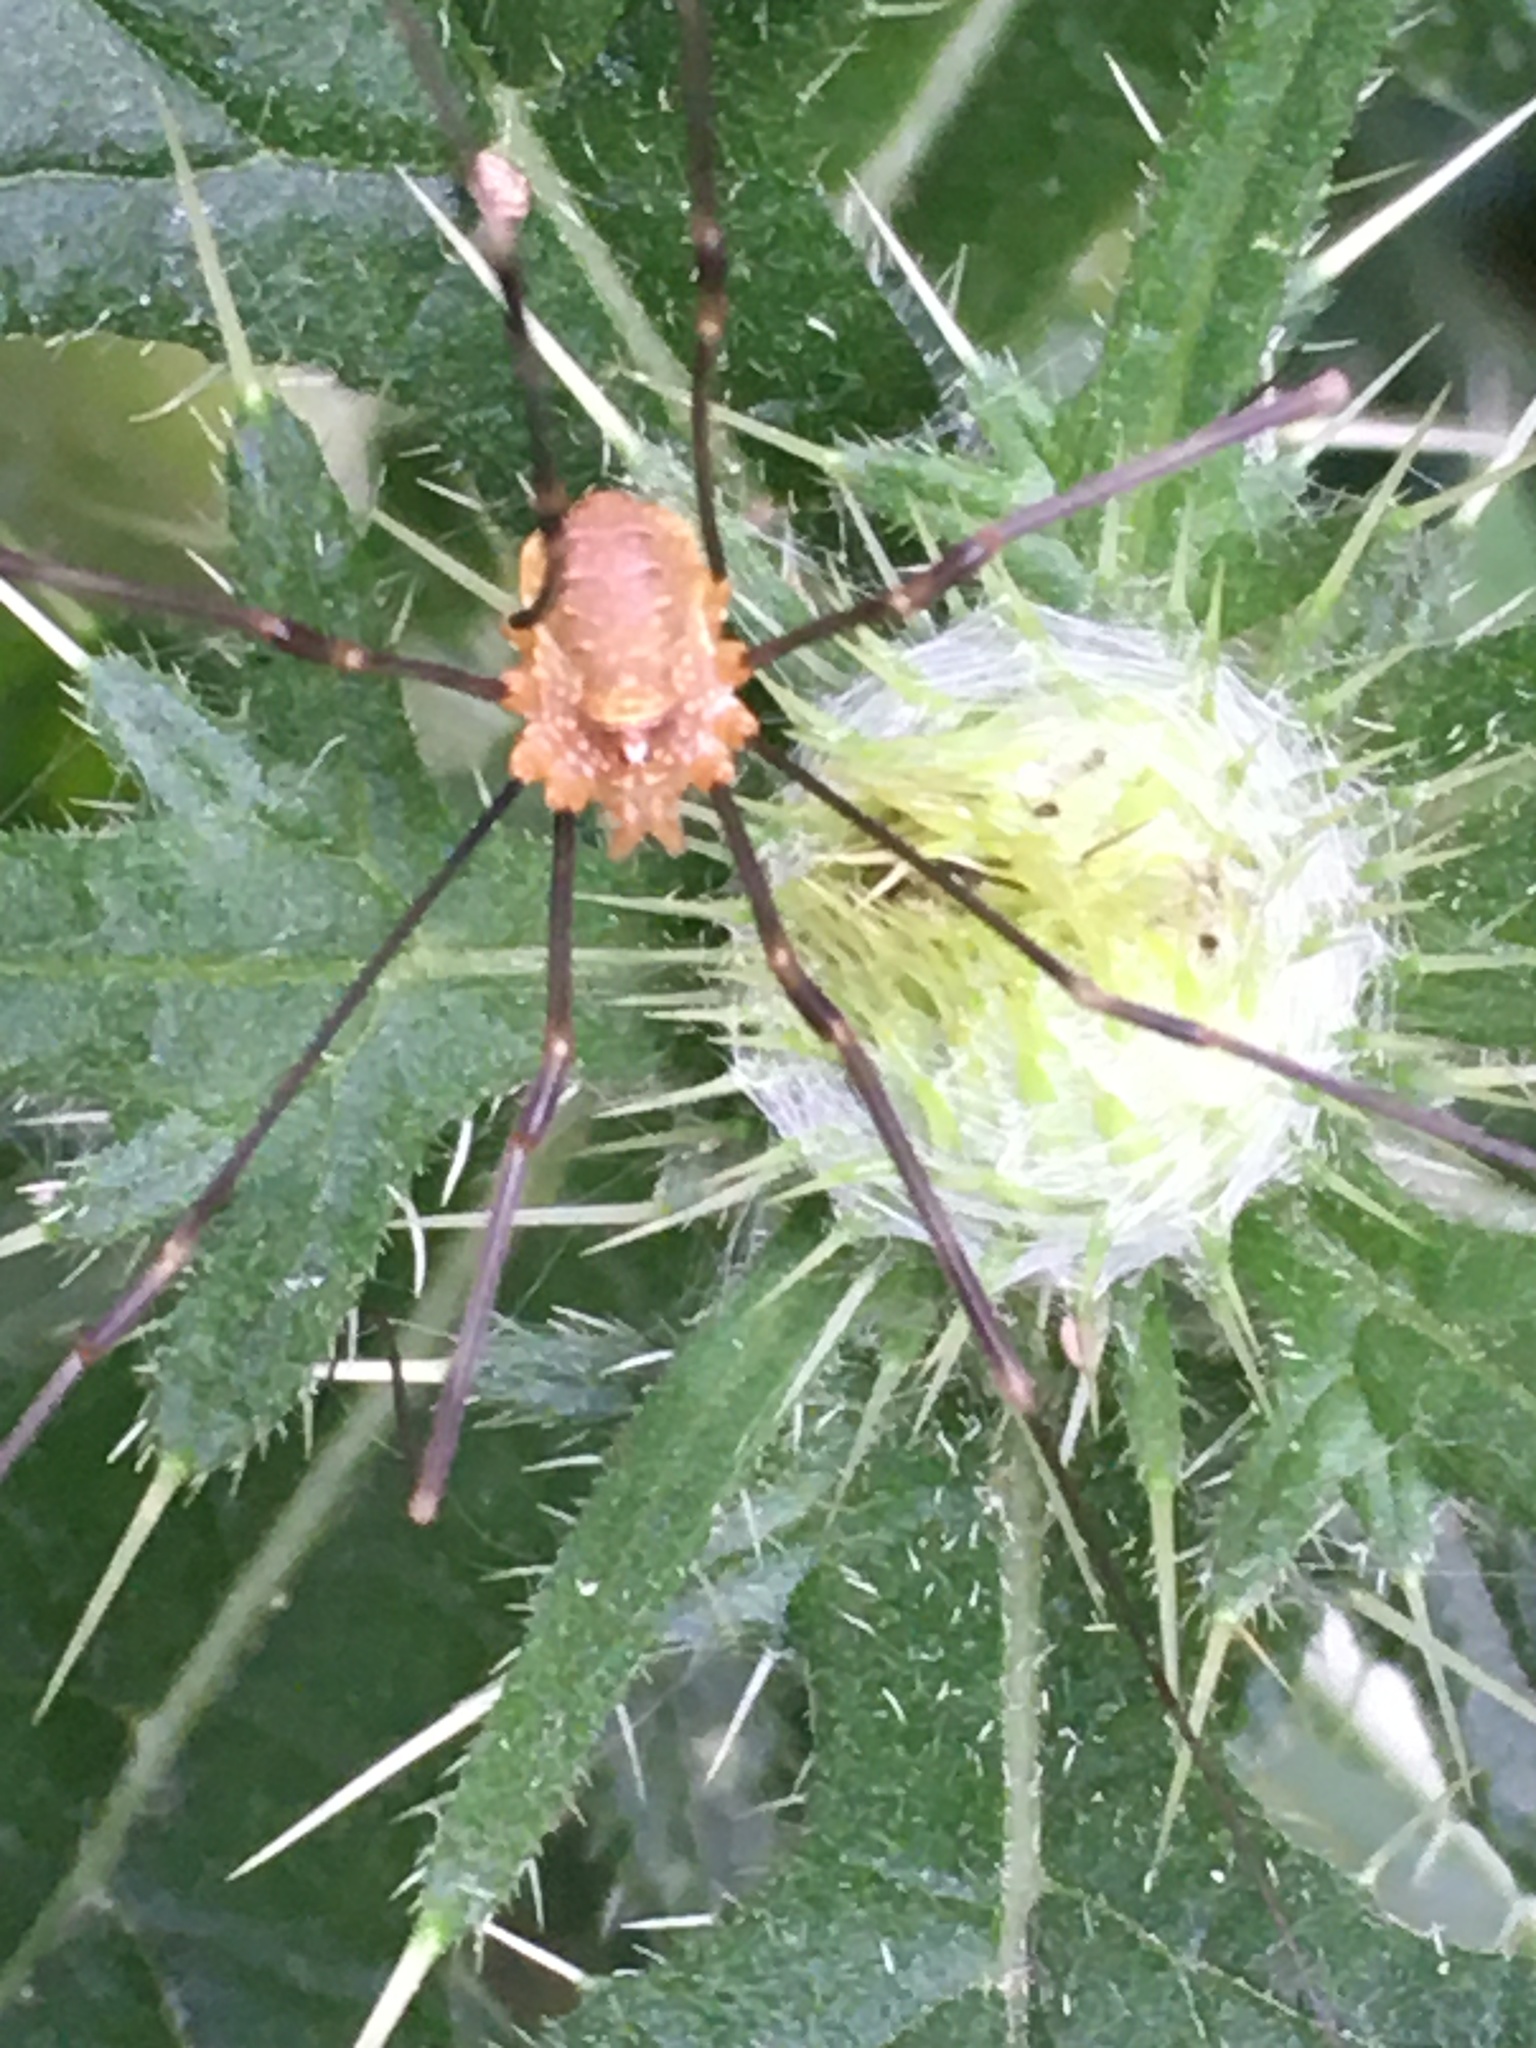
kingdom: Animalia
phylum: Arthropoda
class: Arachnida
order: Opiliones
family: Phalangiidae
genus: Opilio
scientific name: Opilio canestrinii
